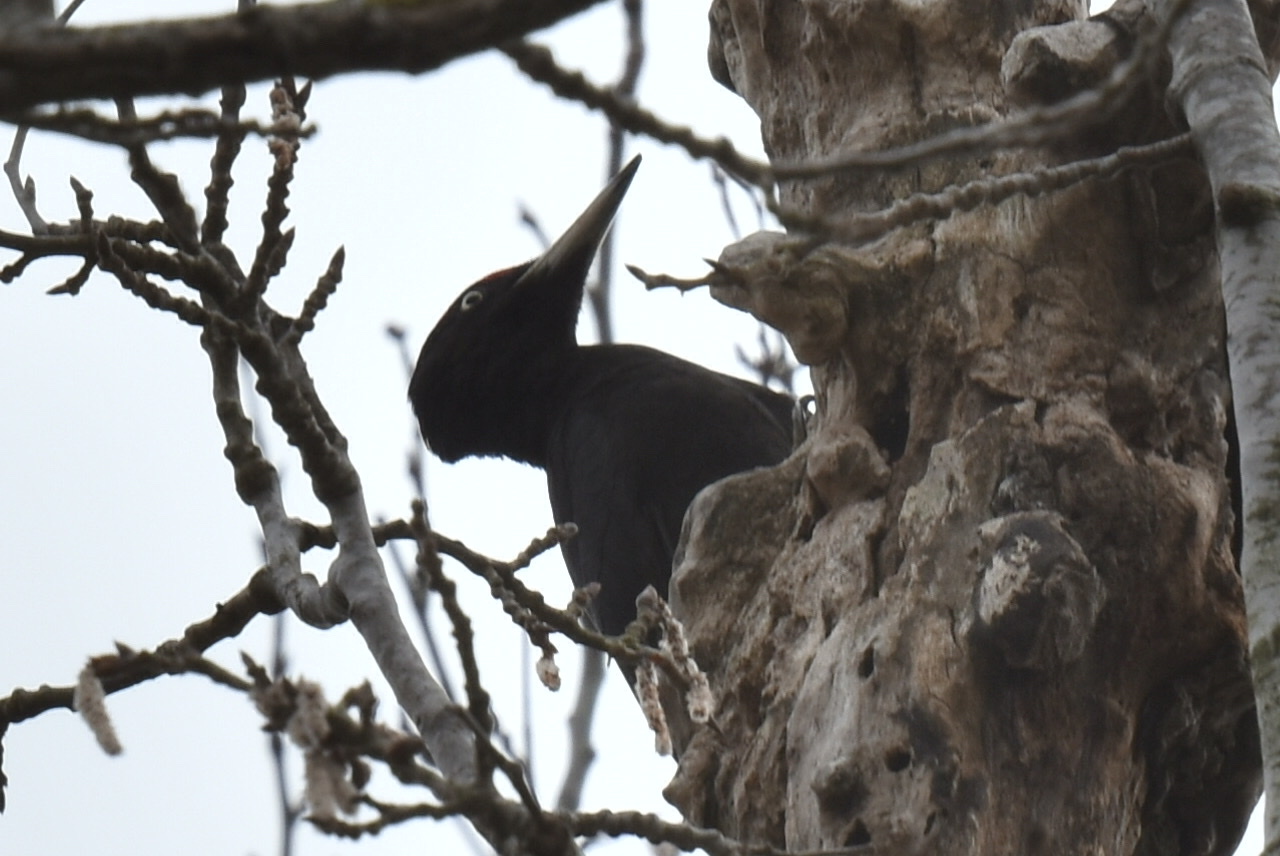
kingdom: Animalia
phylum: Chordata
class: Aves
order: Piciformes
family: Picidae
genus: Dryocopus
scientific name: Dryocopus martius
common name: Black woodpecker
